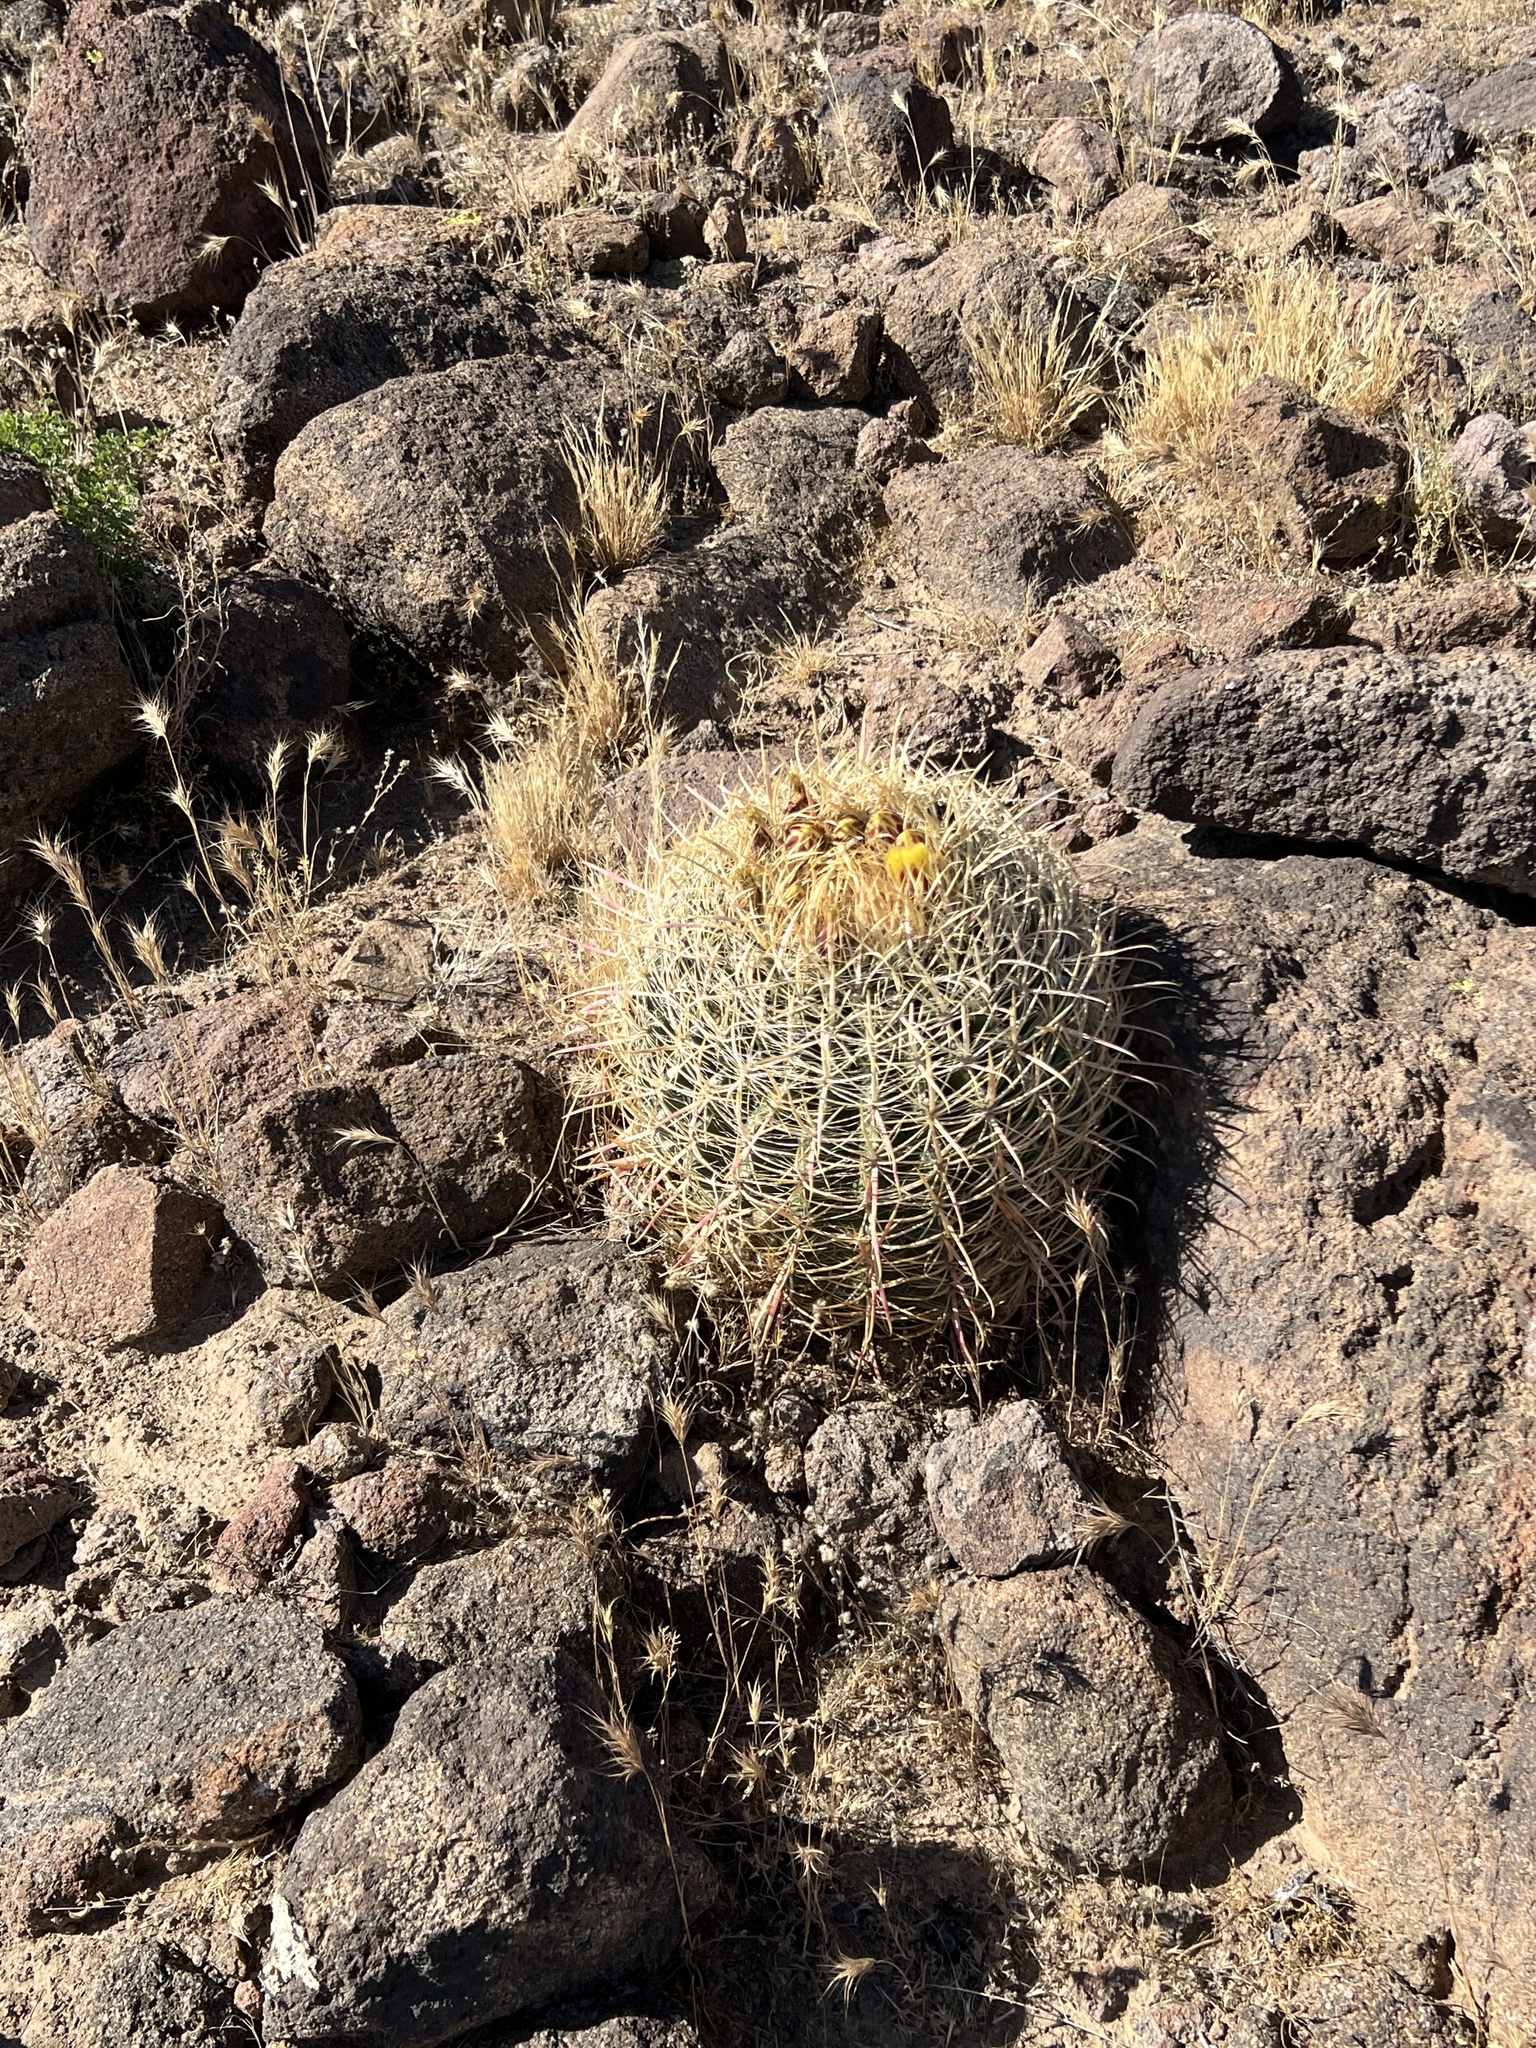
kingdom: Plantae
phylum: Tracheophyta
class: Magnoliopsida
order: Caryophyllales
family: Cactaceae
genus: Ferocactus
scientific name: Ferocactus cylindraceus
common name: California barrel cactus
